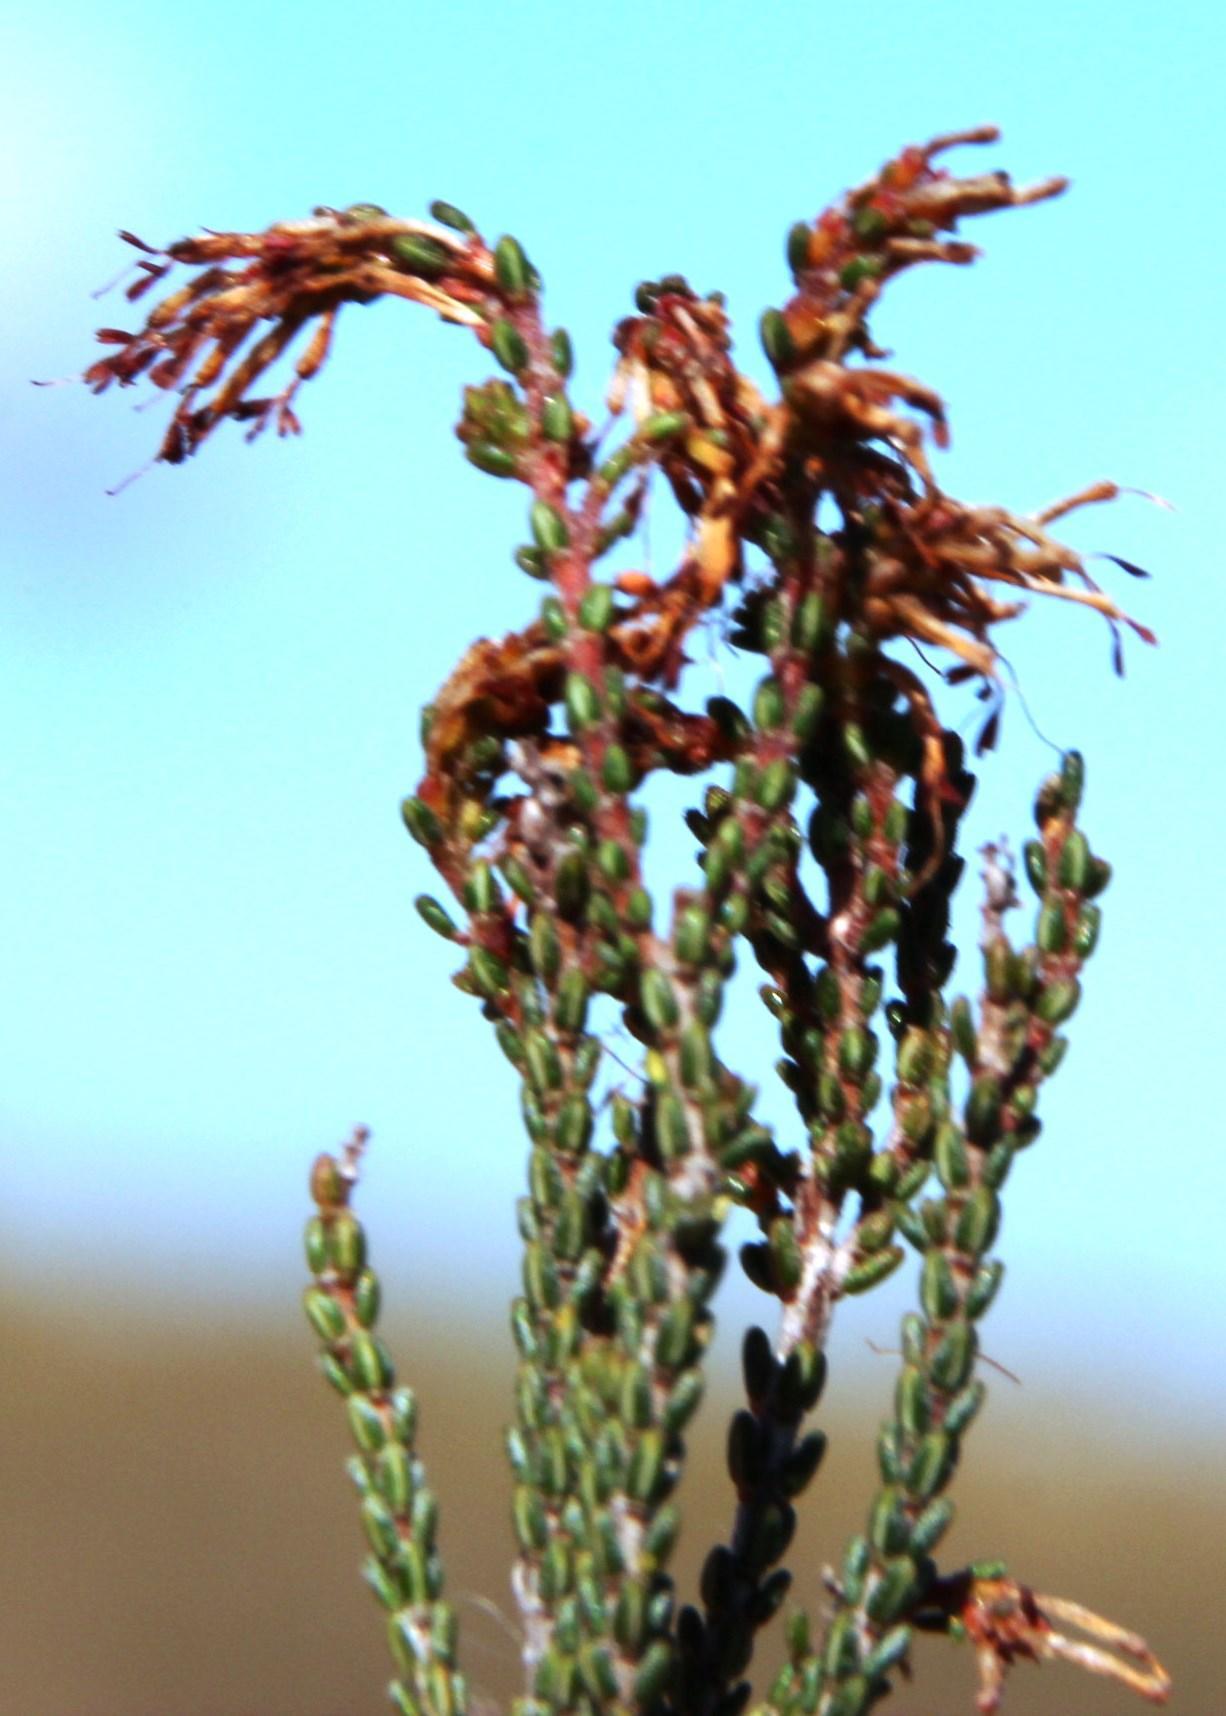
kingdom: Plantae
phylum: Tracheophyta
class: Magnoliopsida
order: Ericales
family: Ericaceae
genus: Erica
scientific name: Erica venustiflora
